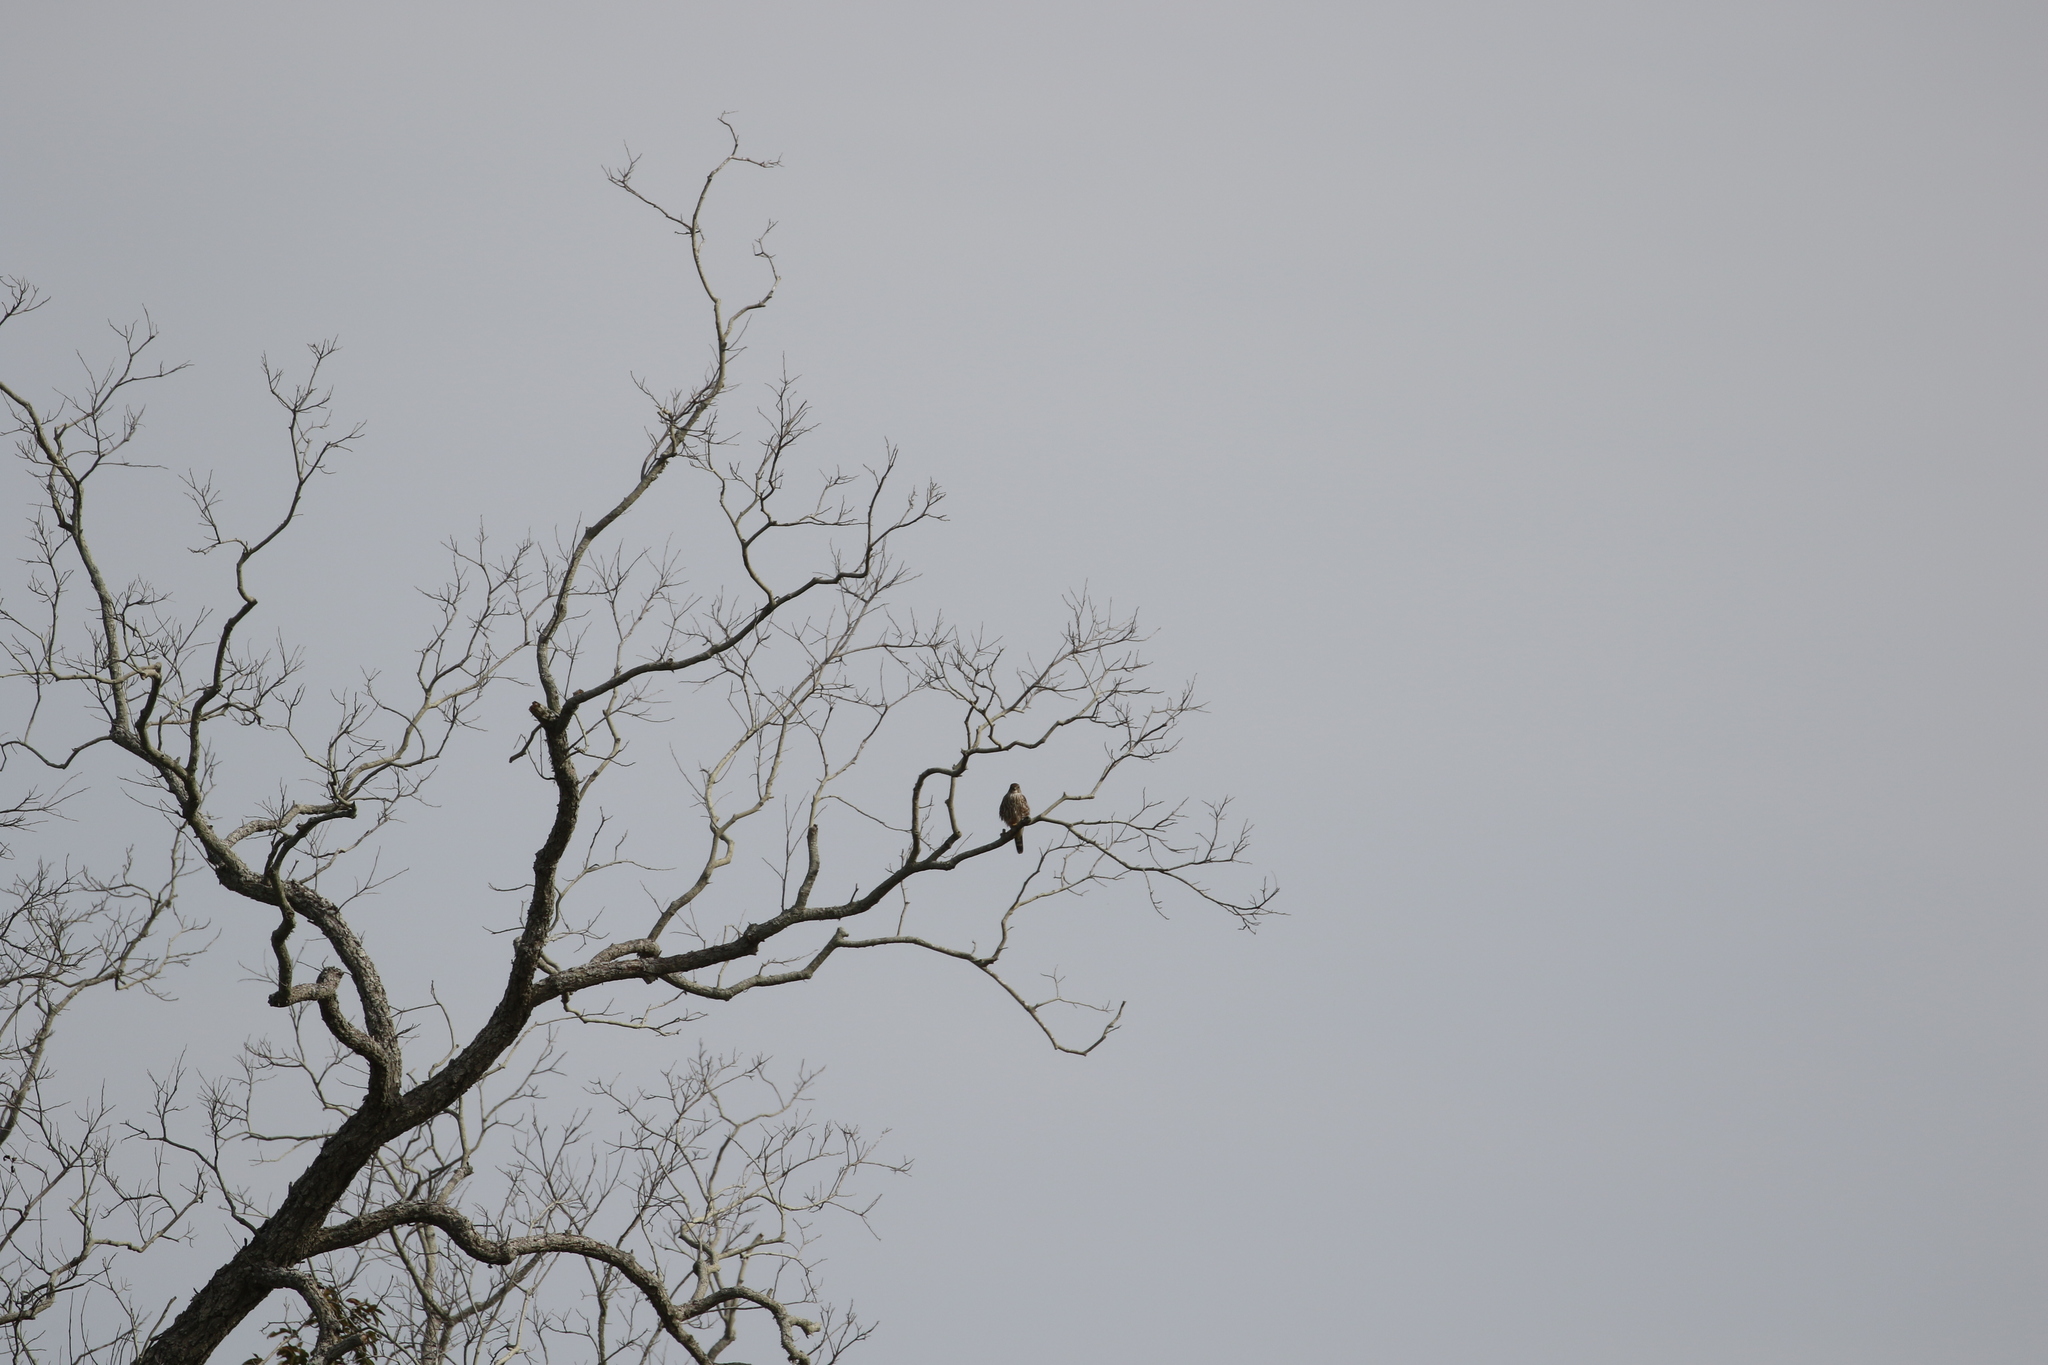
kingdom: Animalia
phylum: Chordata
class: Aves
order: Falconiformes
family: Falconidae
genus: Falco
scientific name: Falco columbarius
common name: Merlin
